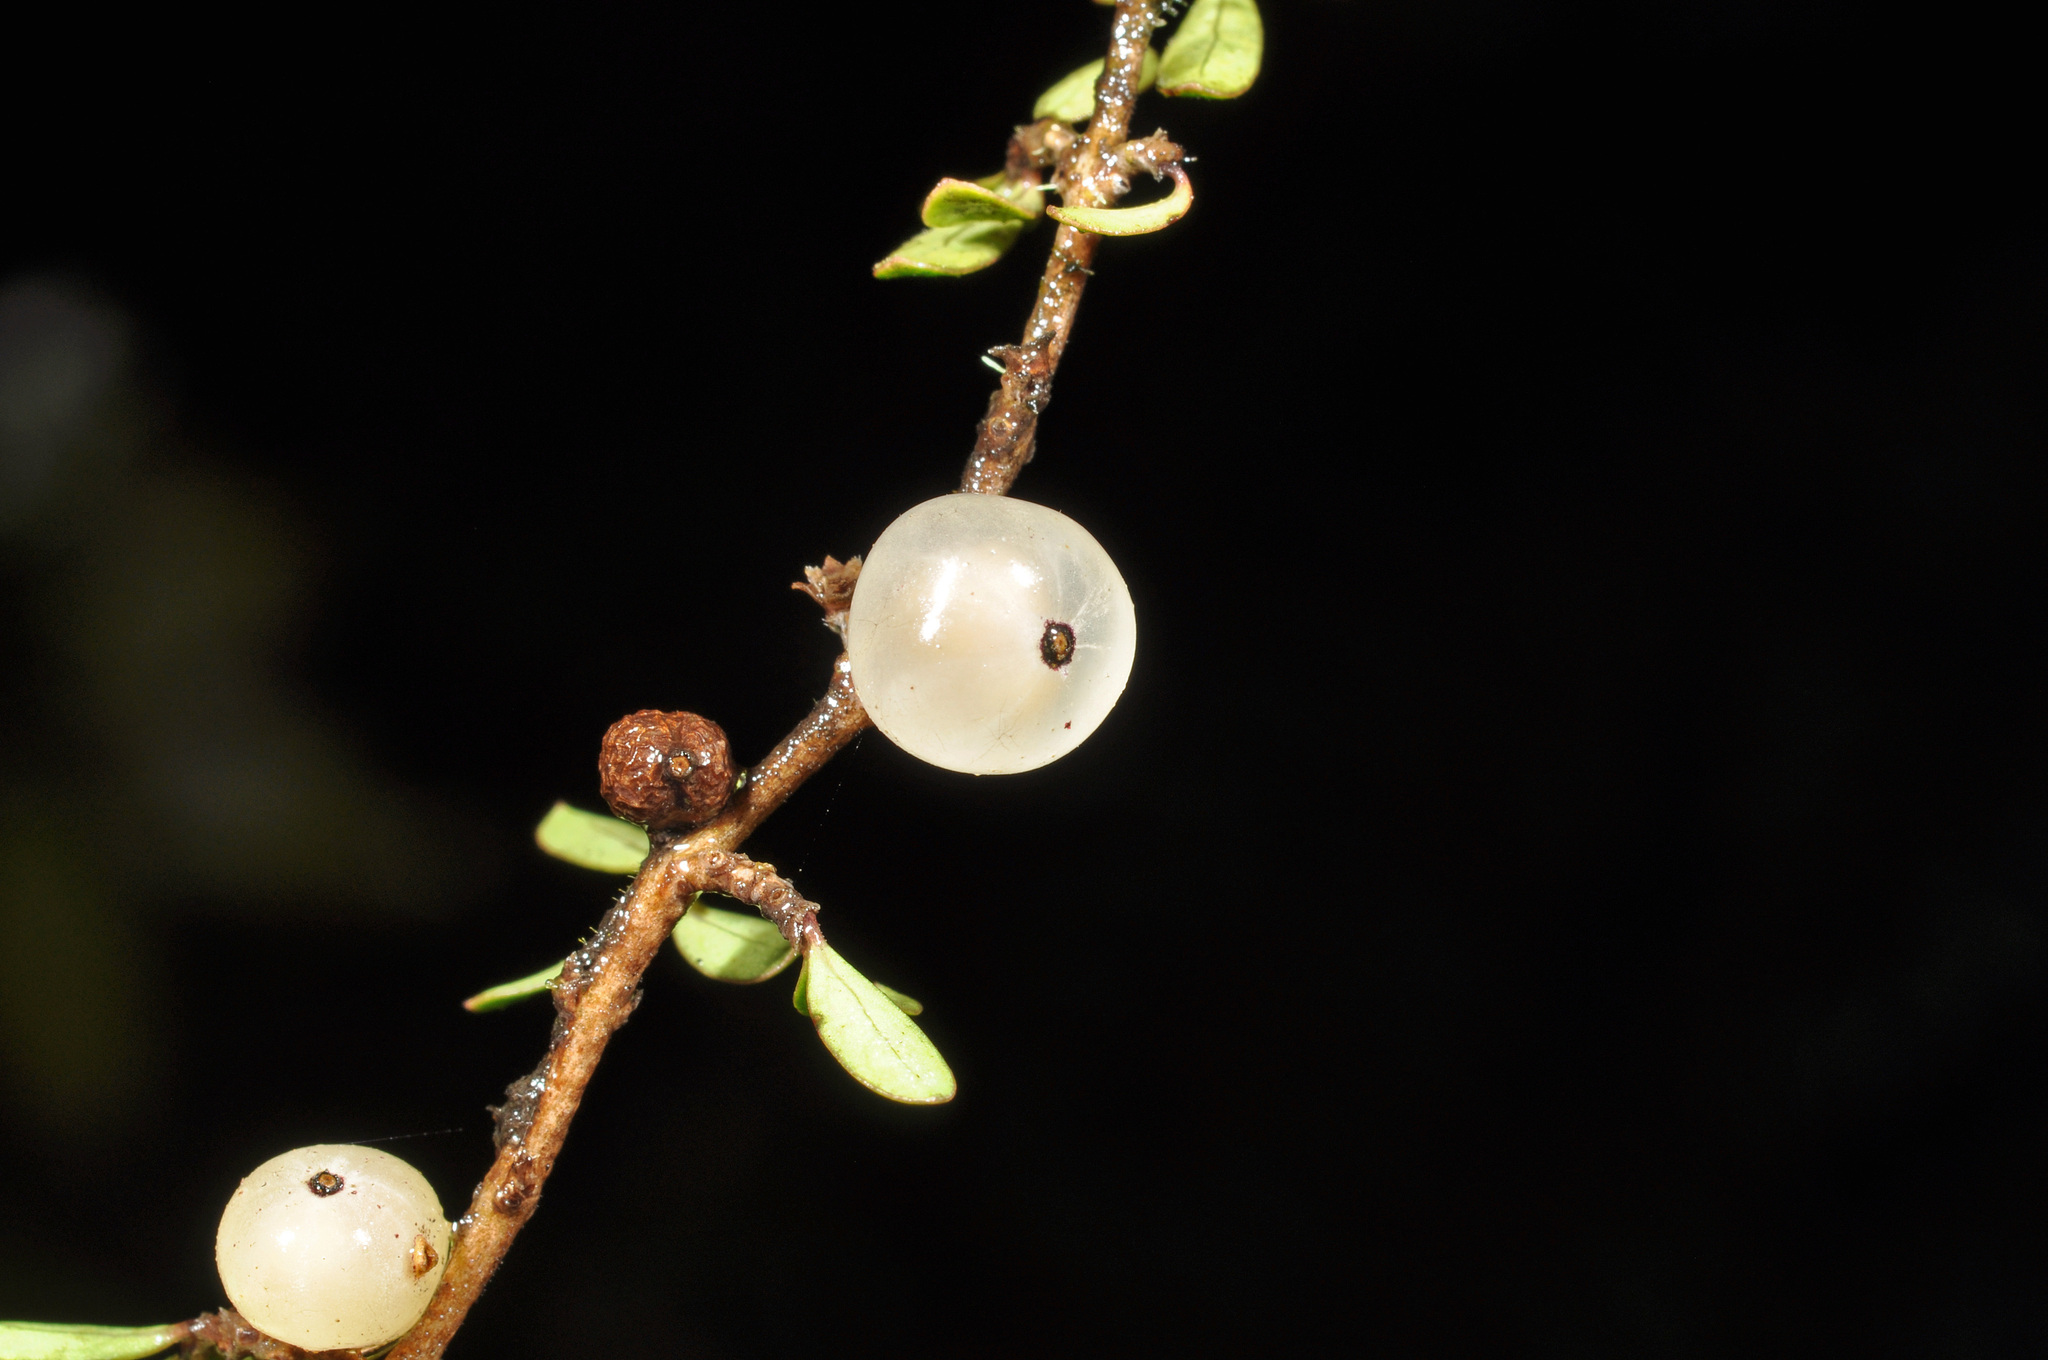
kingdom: Plantae
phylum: Tracheophyta
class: Magnoliopsida
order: Gentianales
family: Rubiaceae
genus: Coprosma
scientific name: Coprosma dumosa
